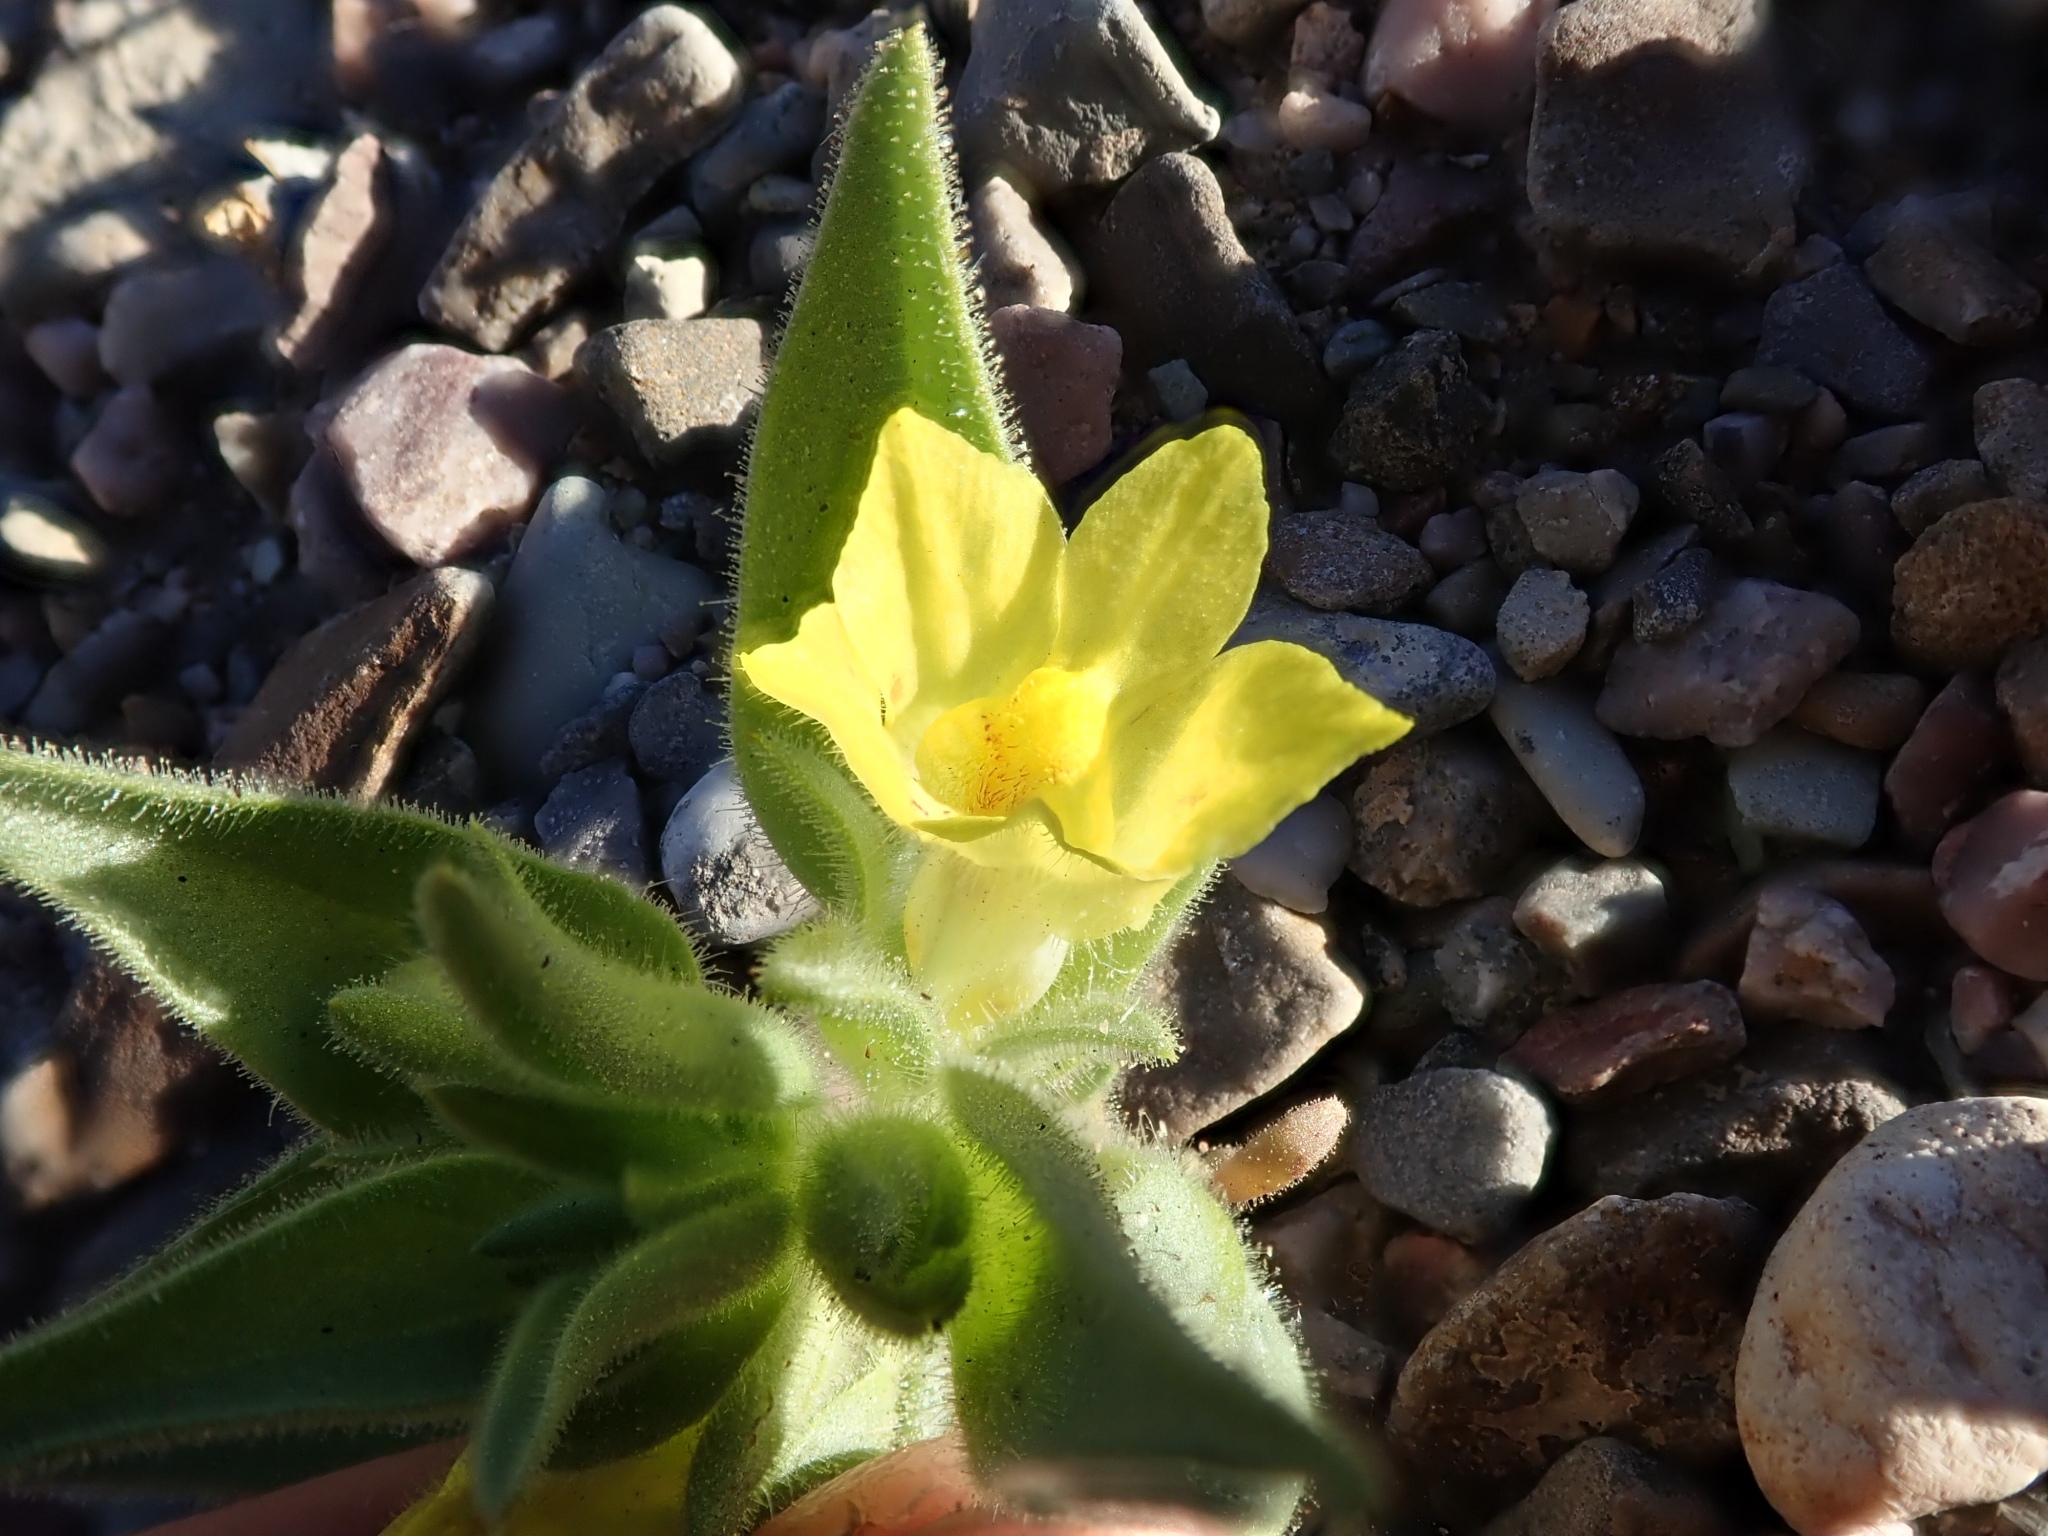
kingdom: Plantae
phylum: Tracheophyta
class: Magnoliopsida
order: Lamiales
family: Plantaginaceae
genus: Mohavea
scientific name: Mohavea breviflora
